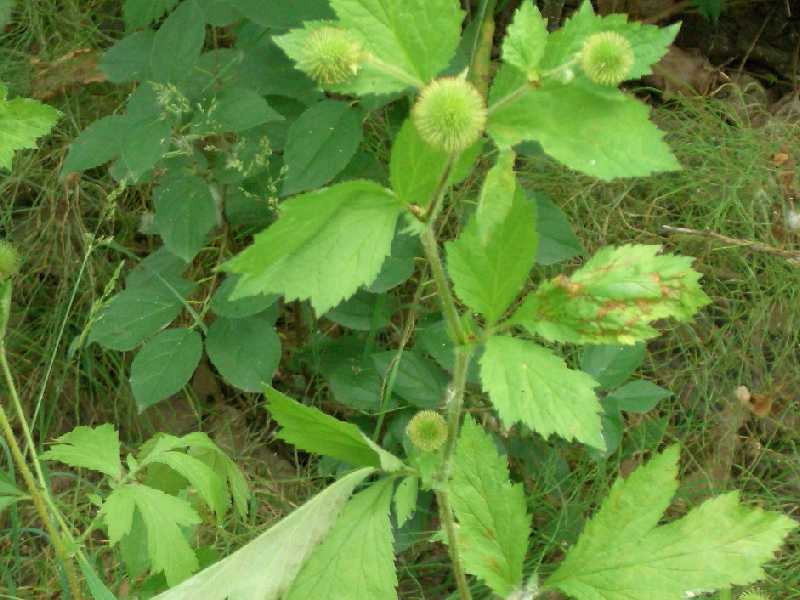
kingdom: Plantae
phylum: Tracheophyta
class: Magnoliopsida
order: Rosales
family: Rosaceae
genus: Geum
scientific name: Geum laciniatum
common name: Rough avens
